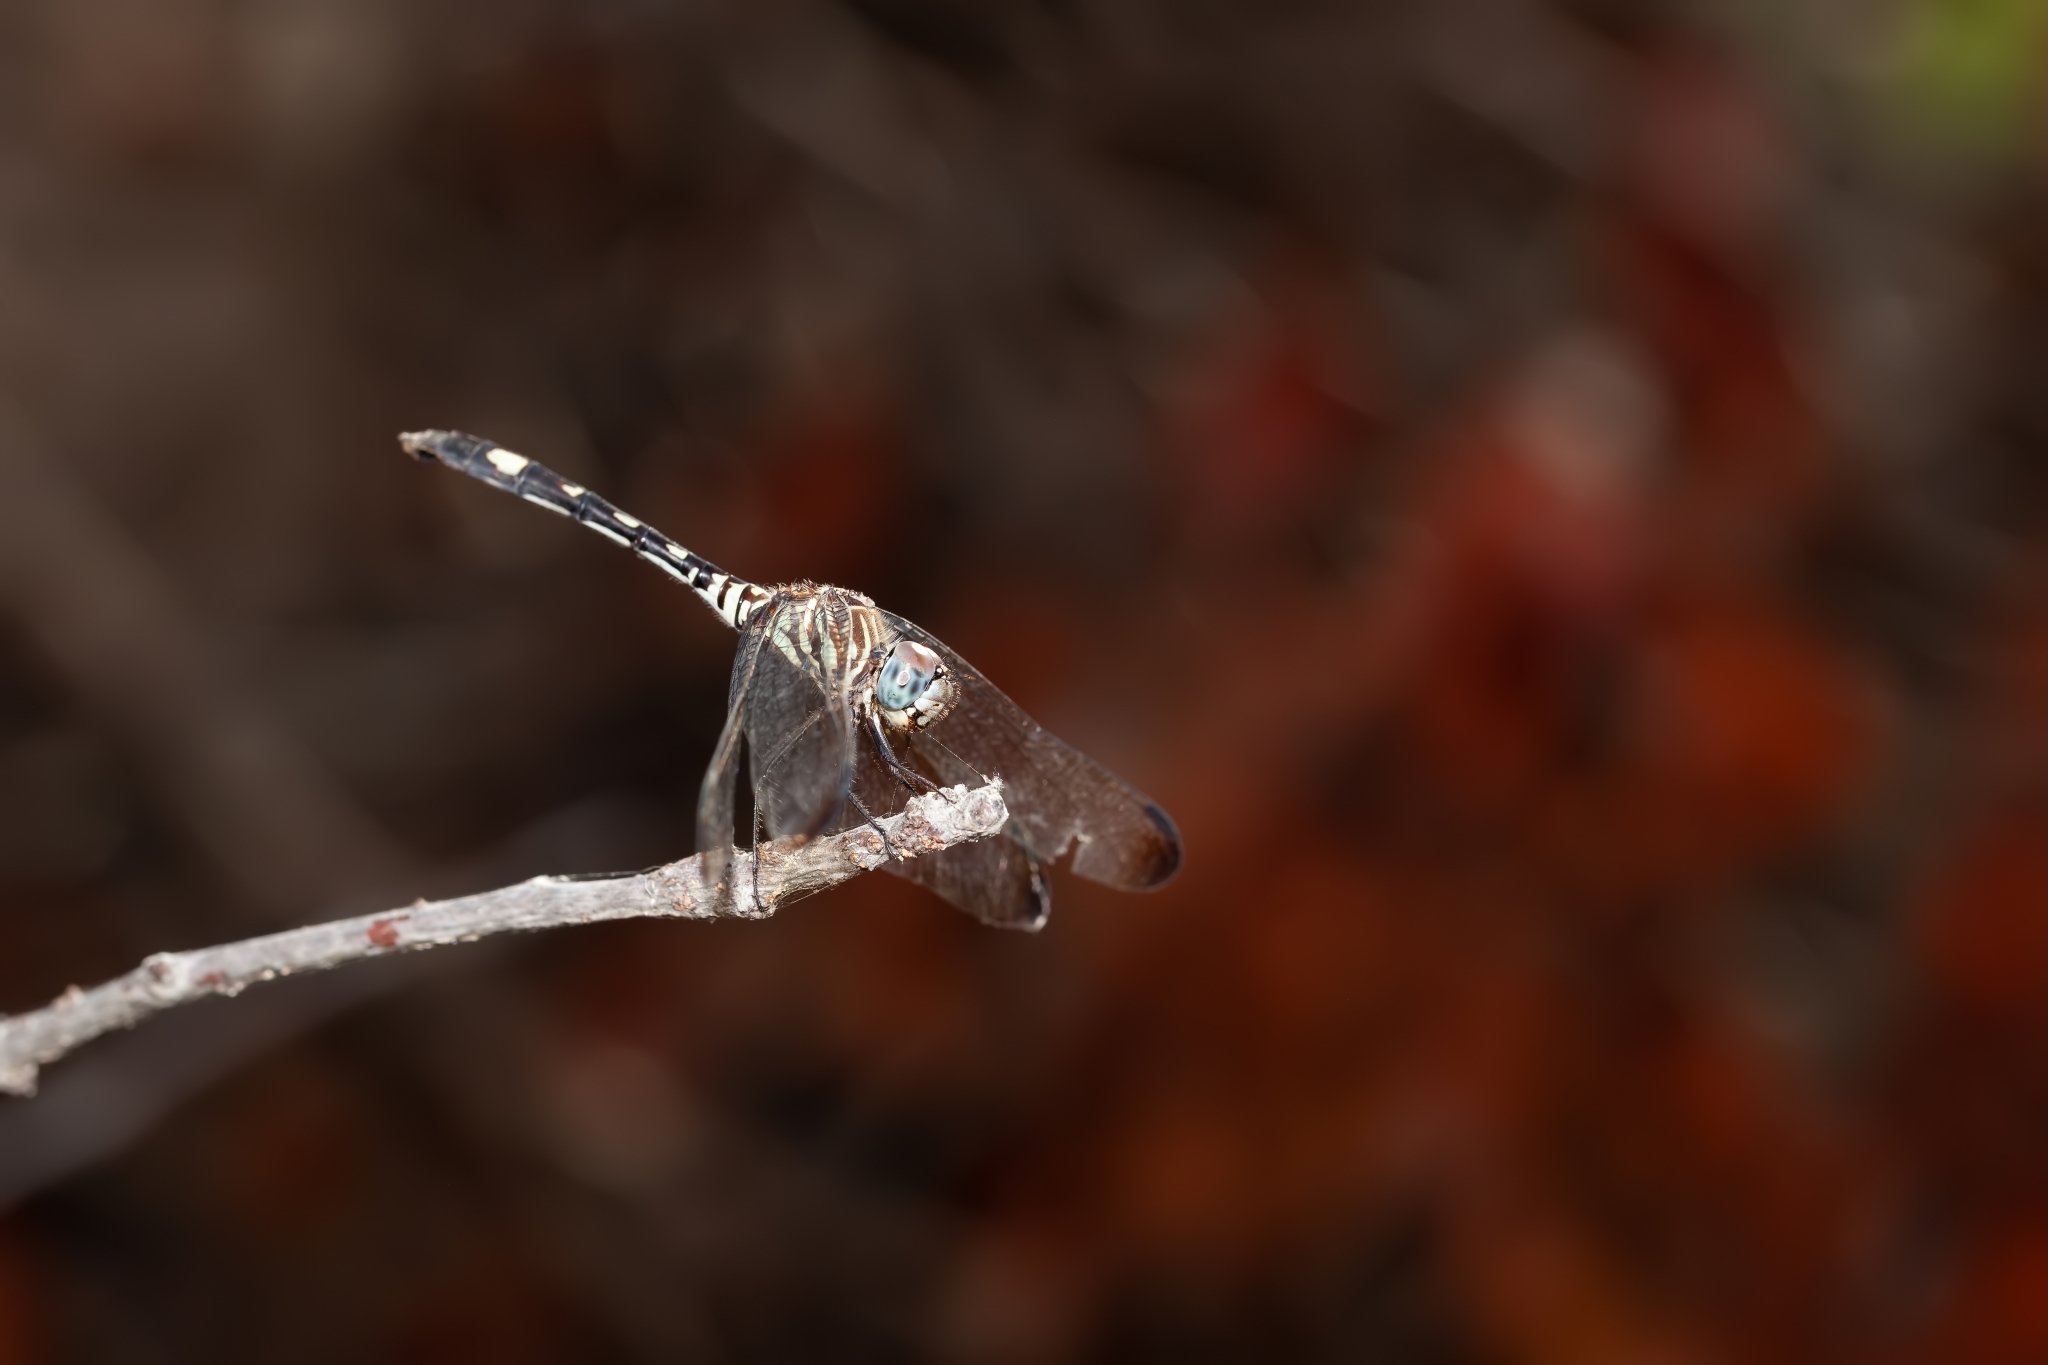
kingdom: Animalia
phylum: Arthropoda
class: Insecta
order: Odonata
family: Libellulidae
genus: Dythemis
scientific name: Dythemis velox
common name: Swift setwing
